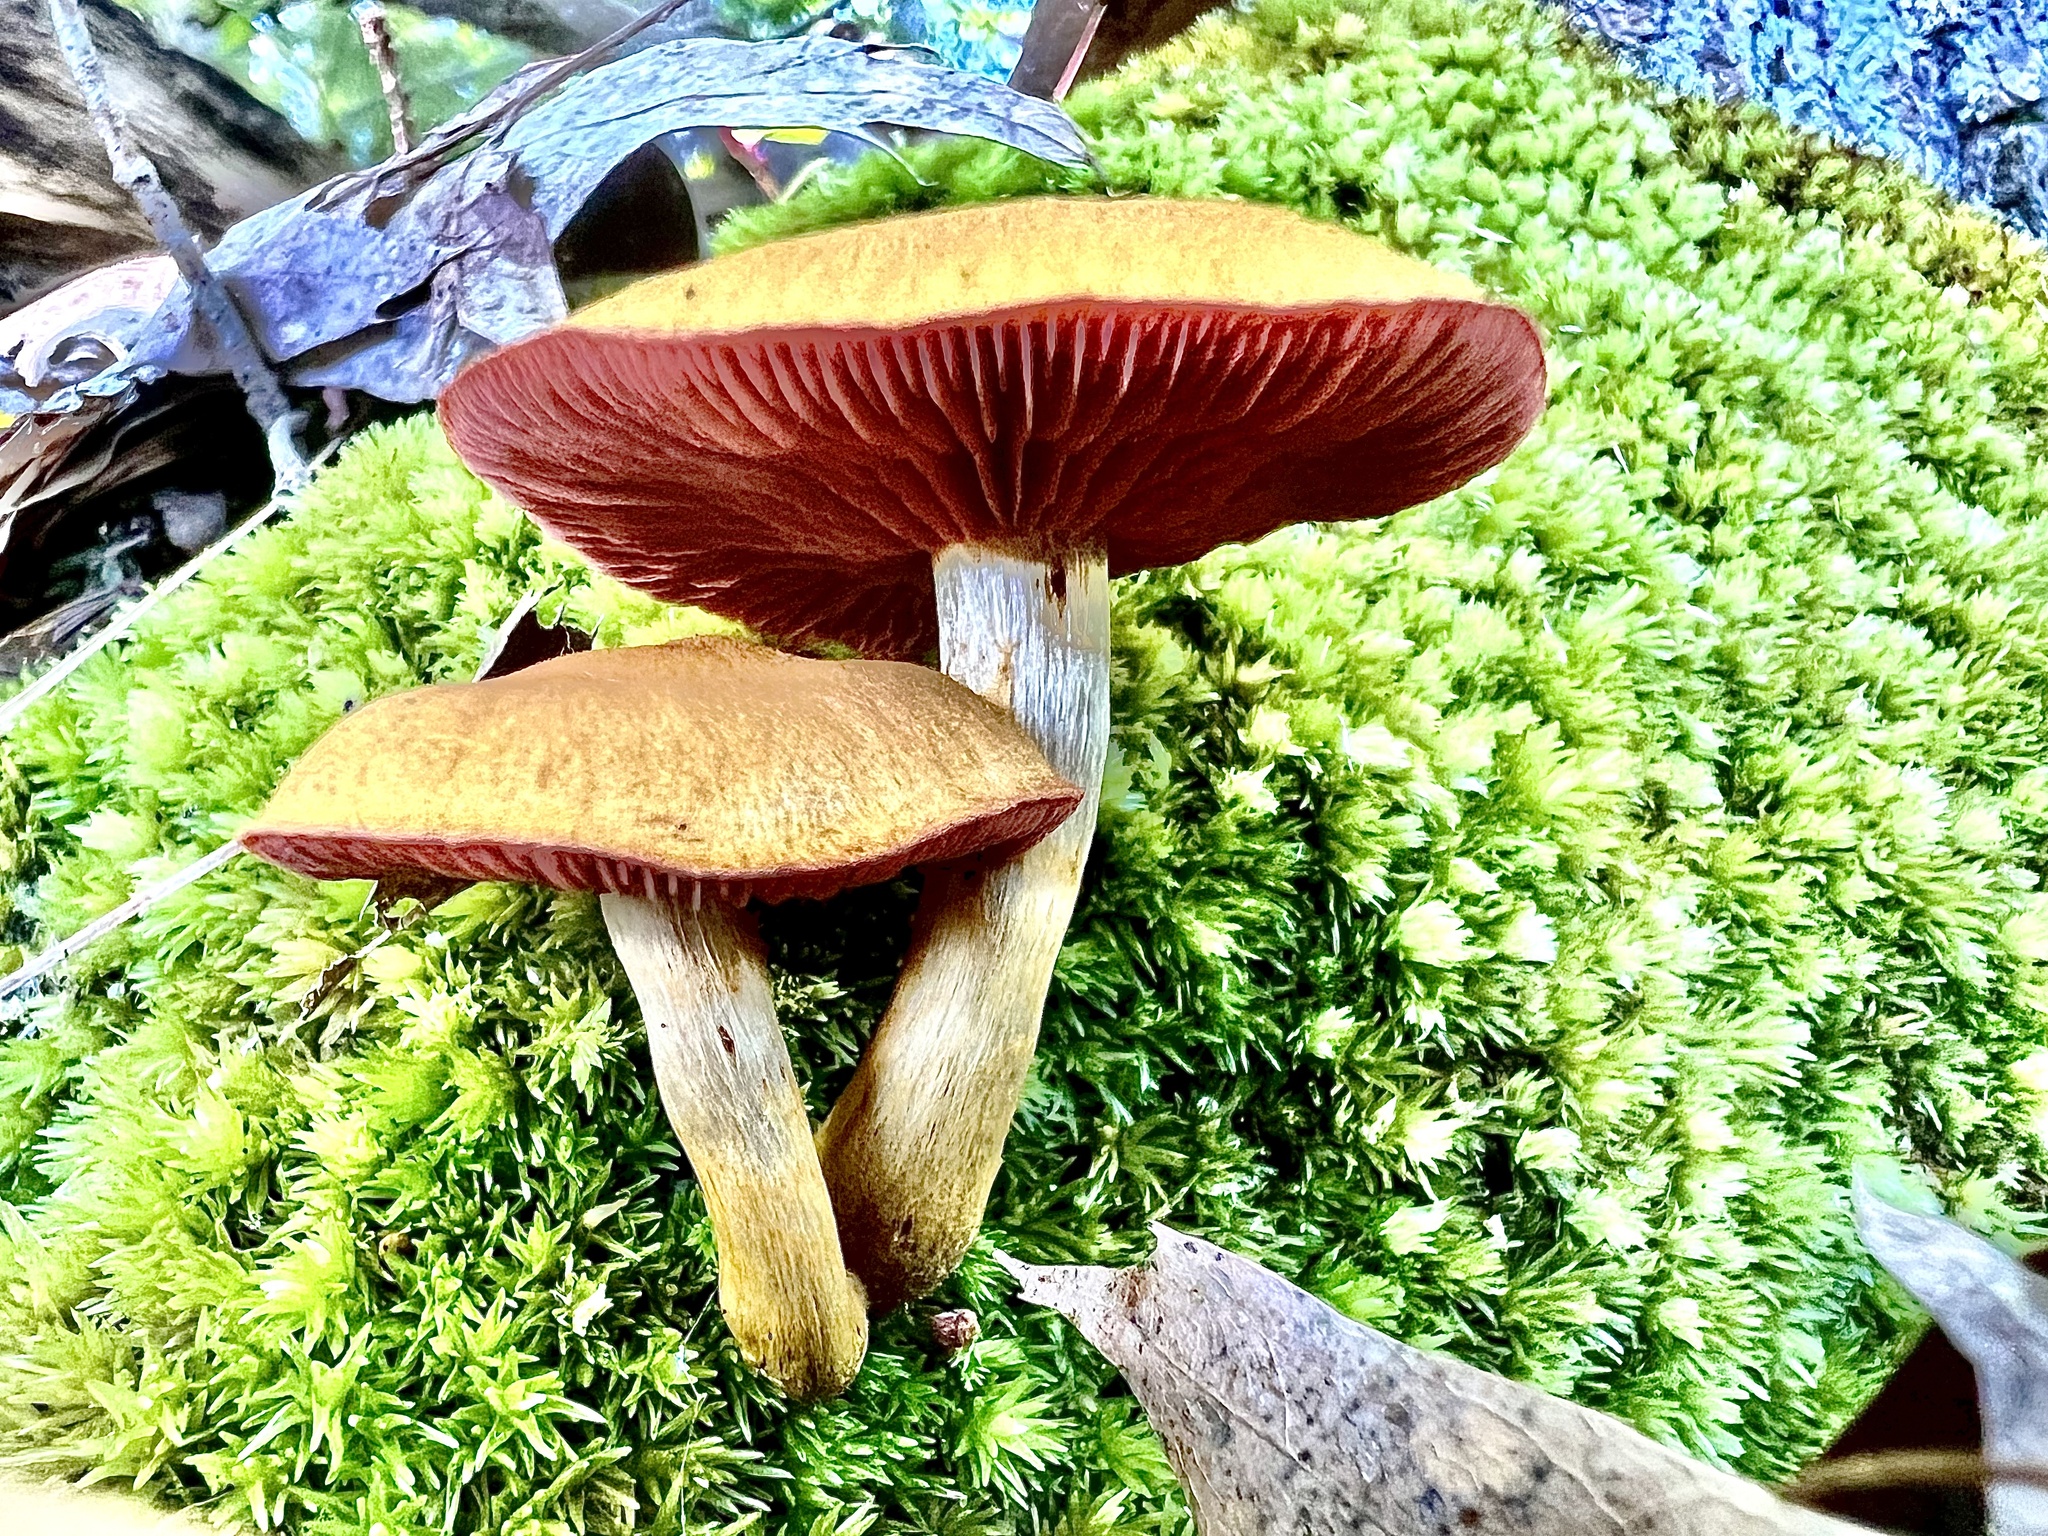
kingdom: Fungi
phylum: Basidiomycota
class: Agaricomycetes
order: Agaricales
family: Cortinariaceae
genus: Cortinarius
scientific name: Cortinarius semisanguineus
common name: Surprise webcap
